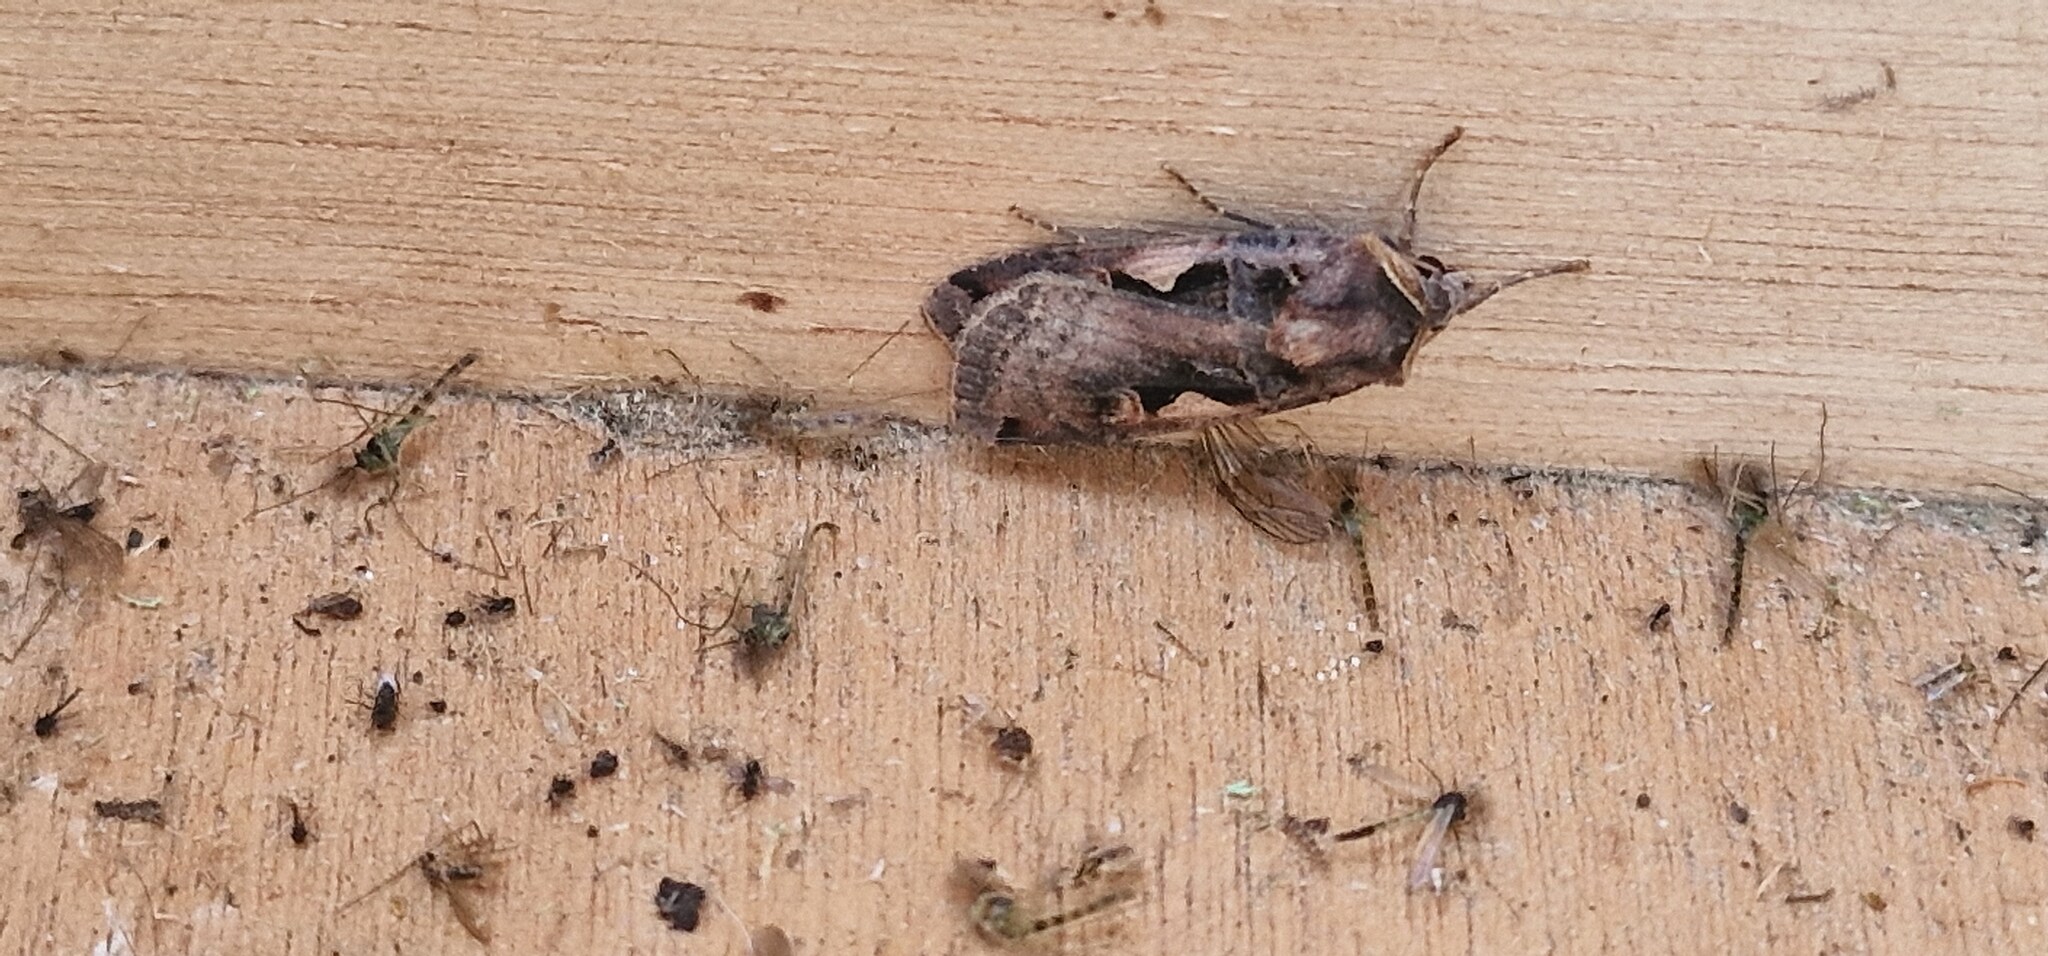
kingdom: Animalia
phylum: Arthropoda
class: Insecta
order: Lepidoptera
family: Noctuidae
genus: Xestia
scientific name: Xestia c-nigrum
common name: Setaceous hebrew character
